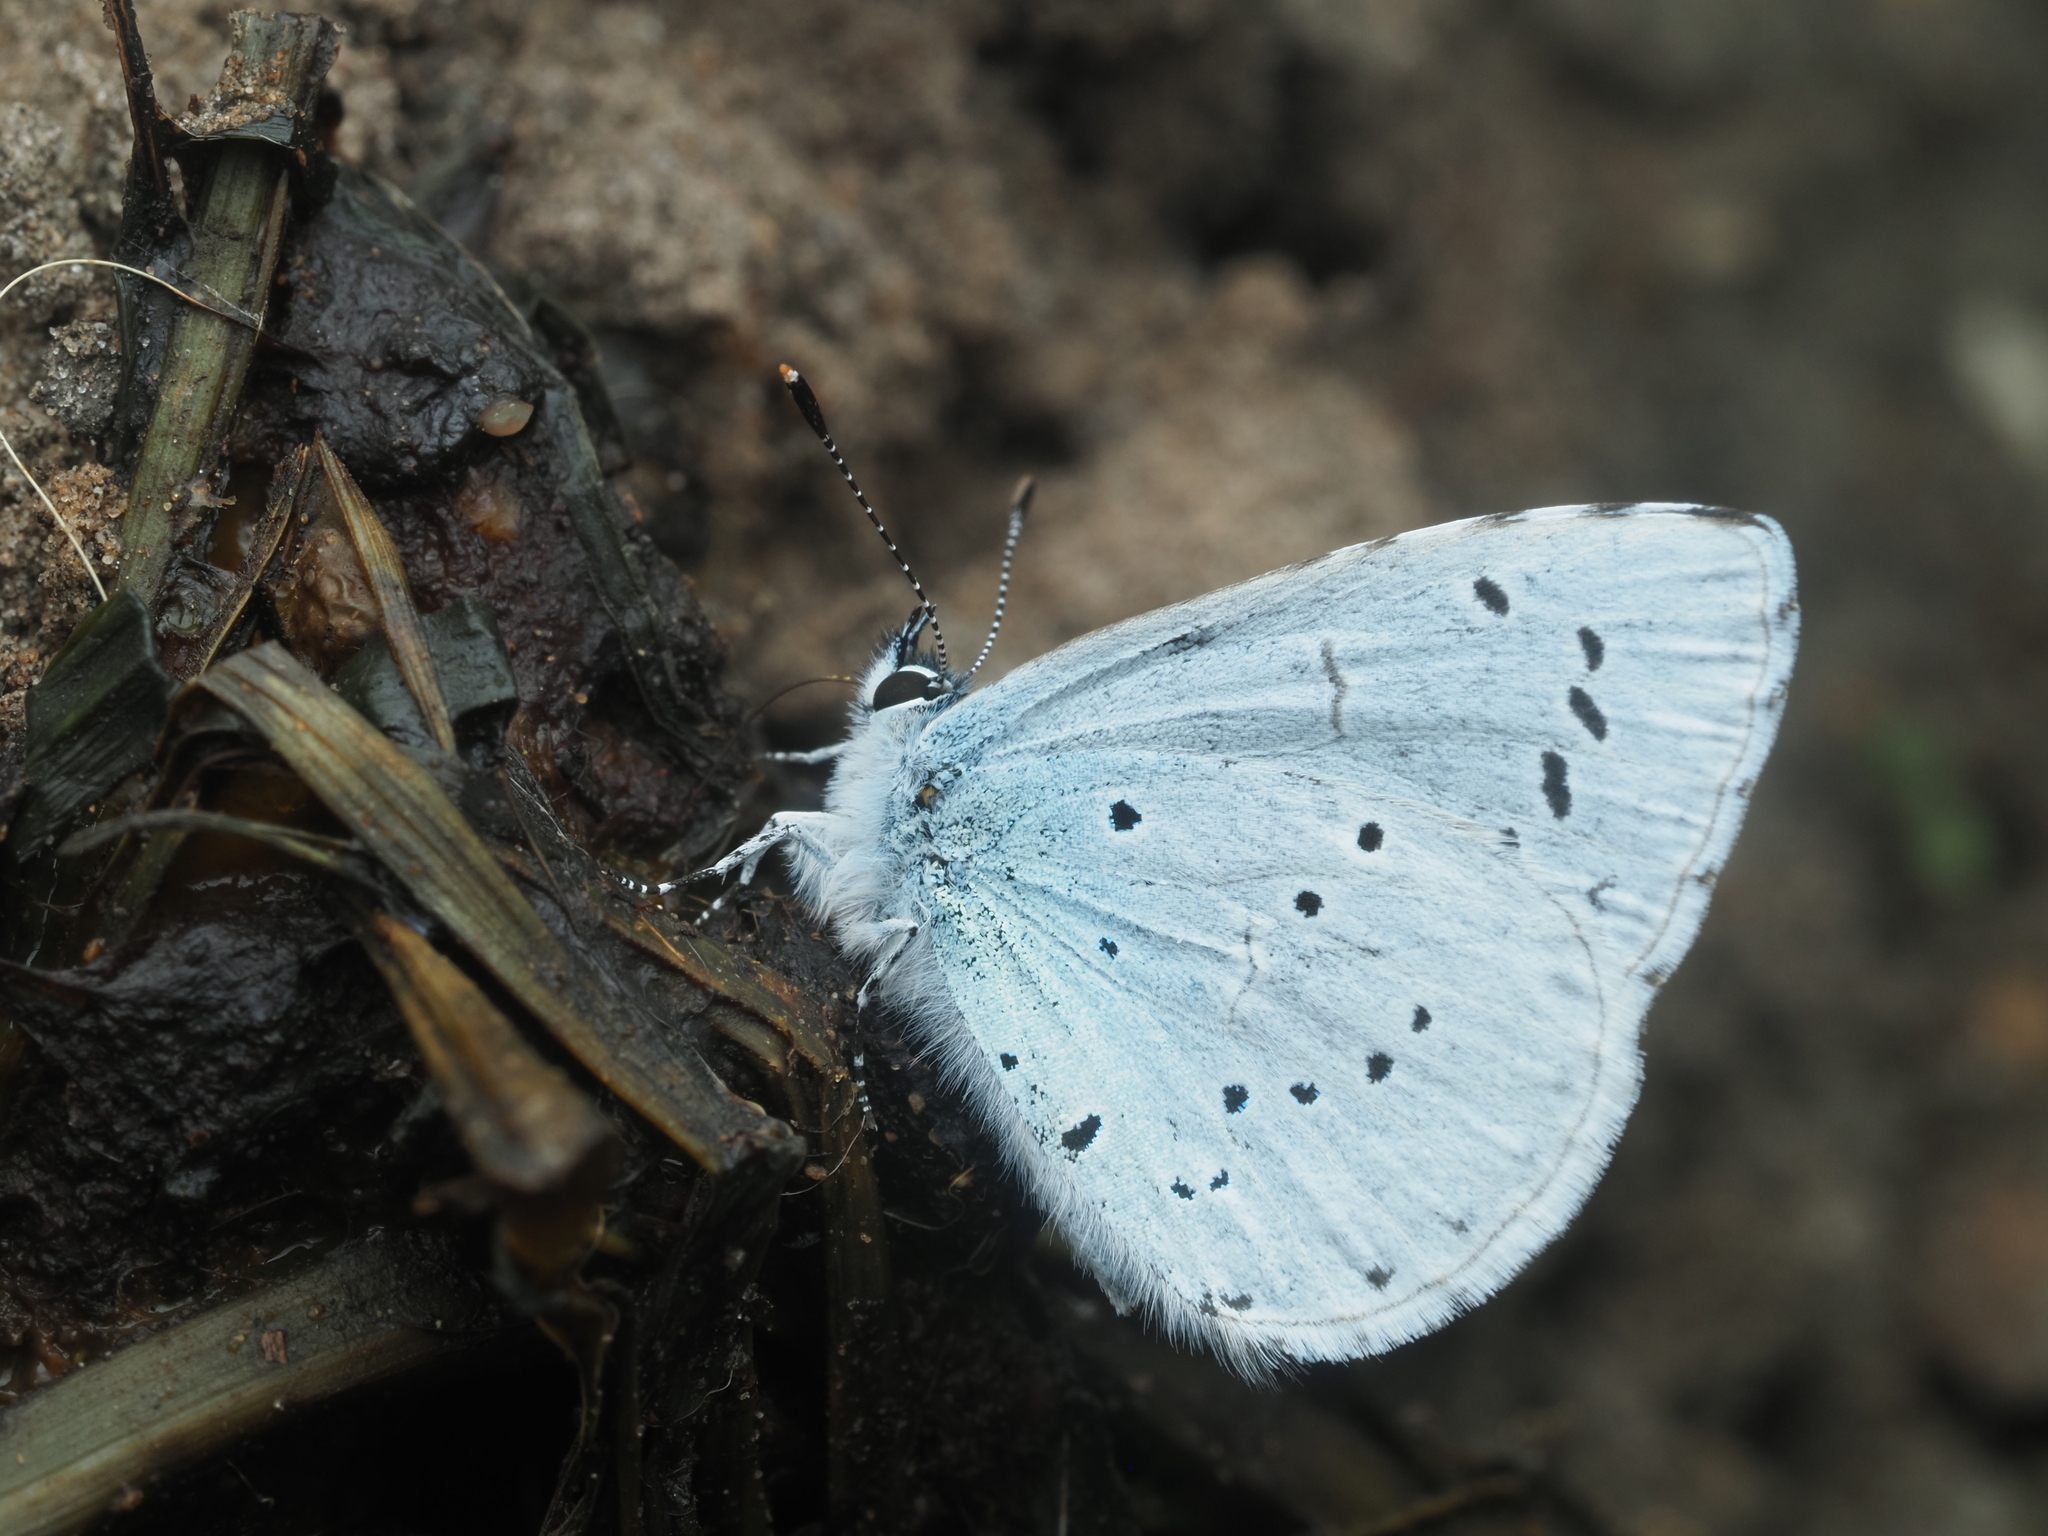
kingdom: Animalia
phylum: Arthropoda
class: Insecta
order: Lepidoptera
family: Lycaenidae
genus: Celastrina
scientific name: Celastrina argiolus
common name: Holly blue
